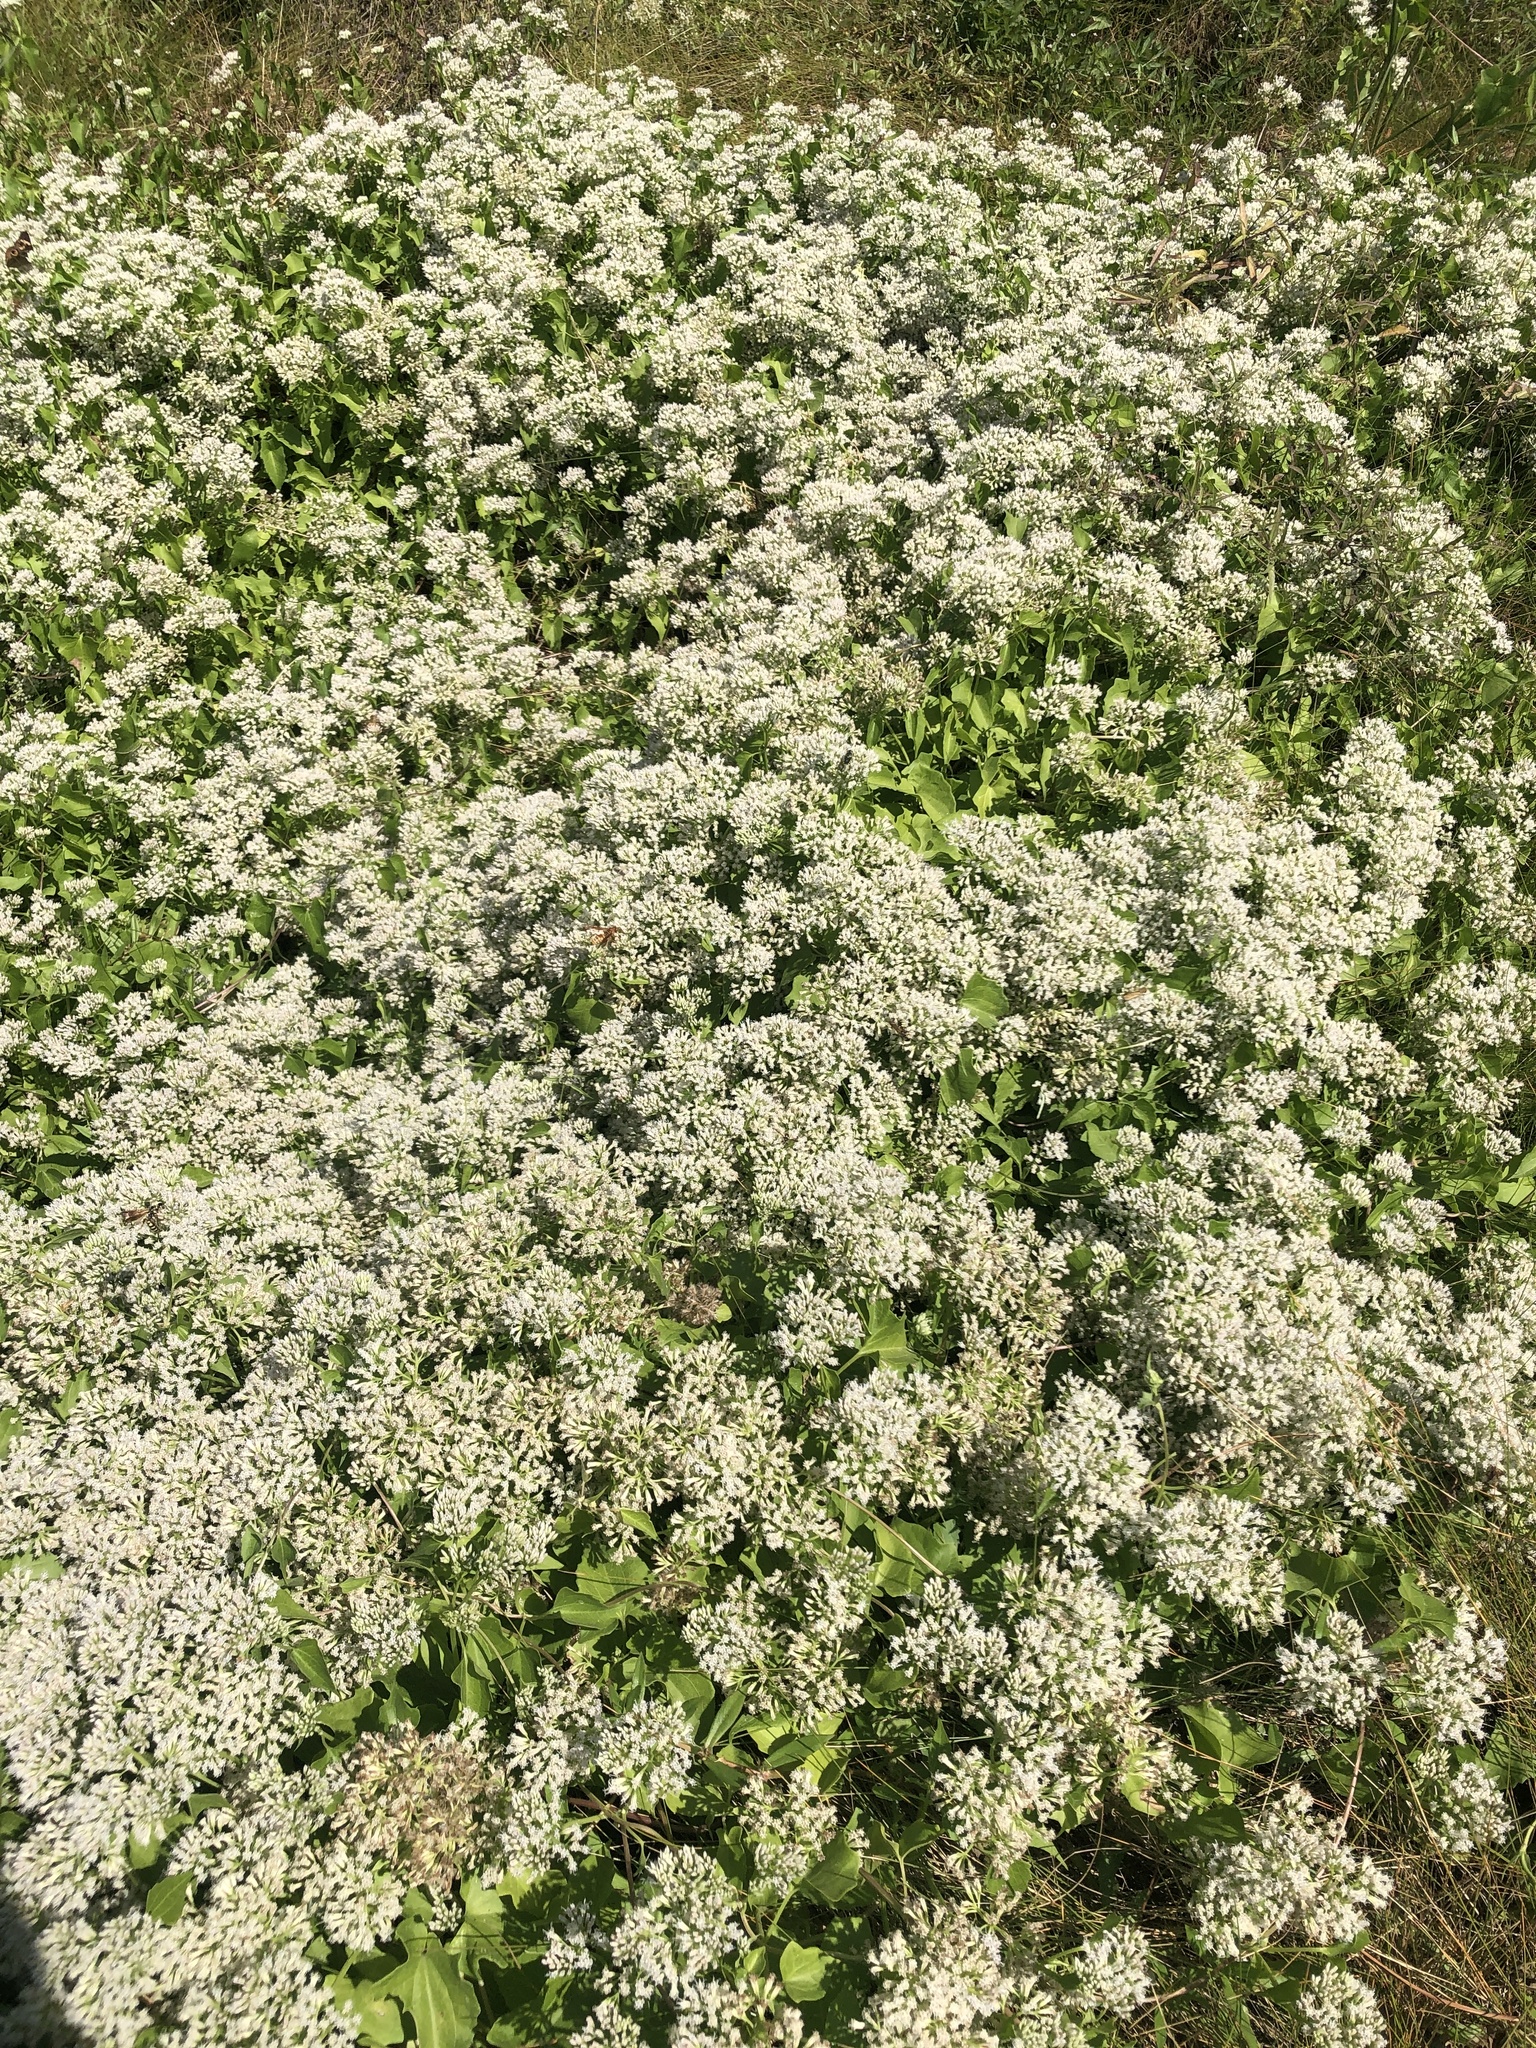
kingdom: Plantae
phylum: Tracheophyta
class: Magnoliopsida
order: Asterales
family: Asteraceae
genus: Mikania
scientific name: Mikania scandens
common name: Climbing hempvine
